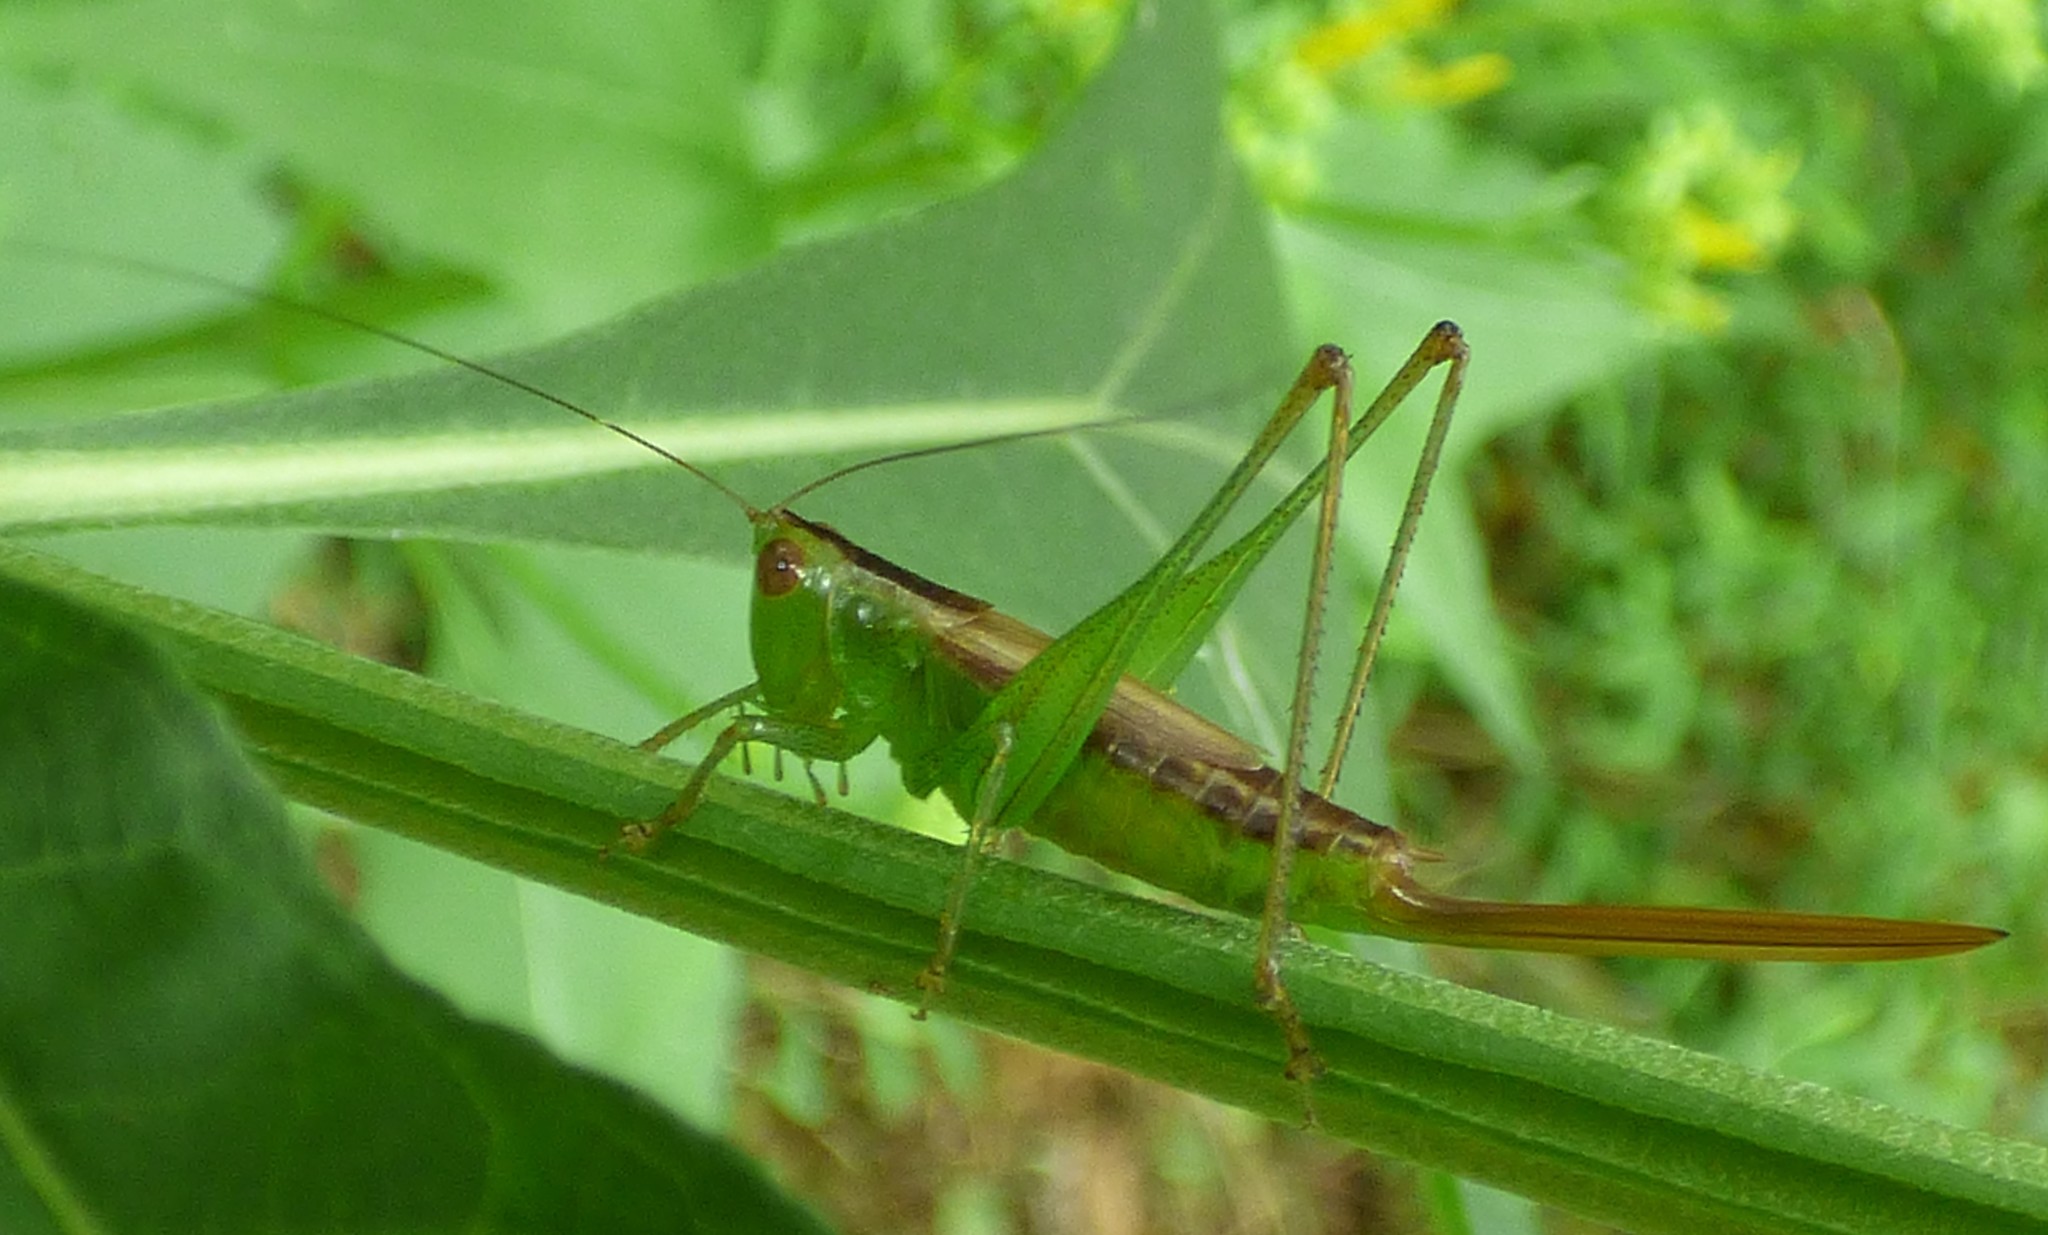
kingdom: Animalia
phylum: Arthropoda
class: Insecta
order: Orthoptera
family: Tettigoniidae
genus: Conocephalus
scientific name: Conocephalus brevipennis
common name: Short-winged meadow katydid
